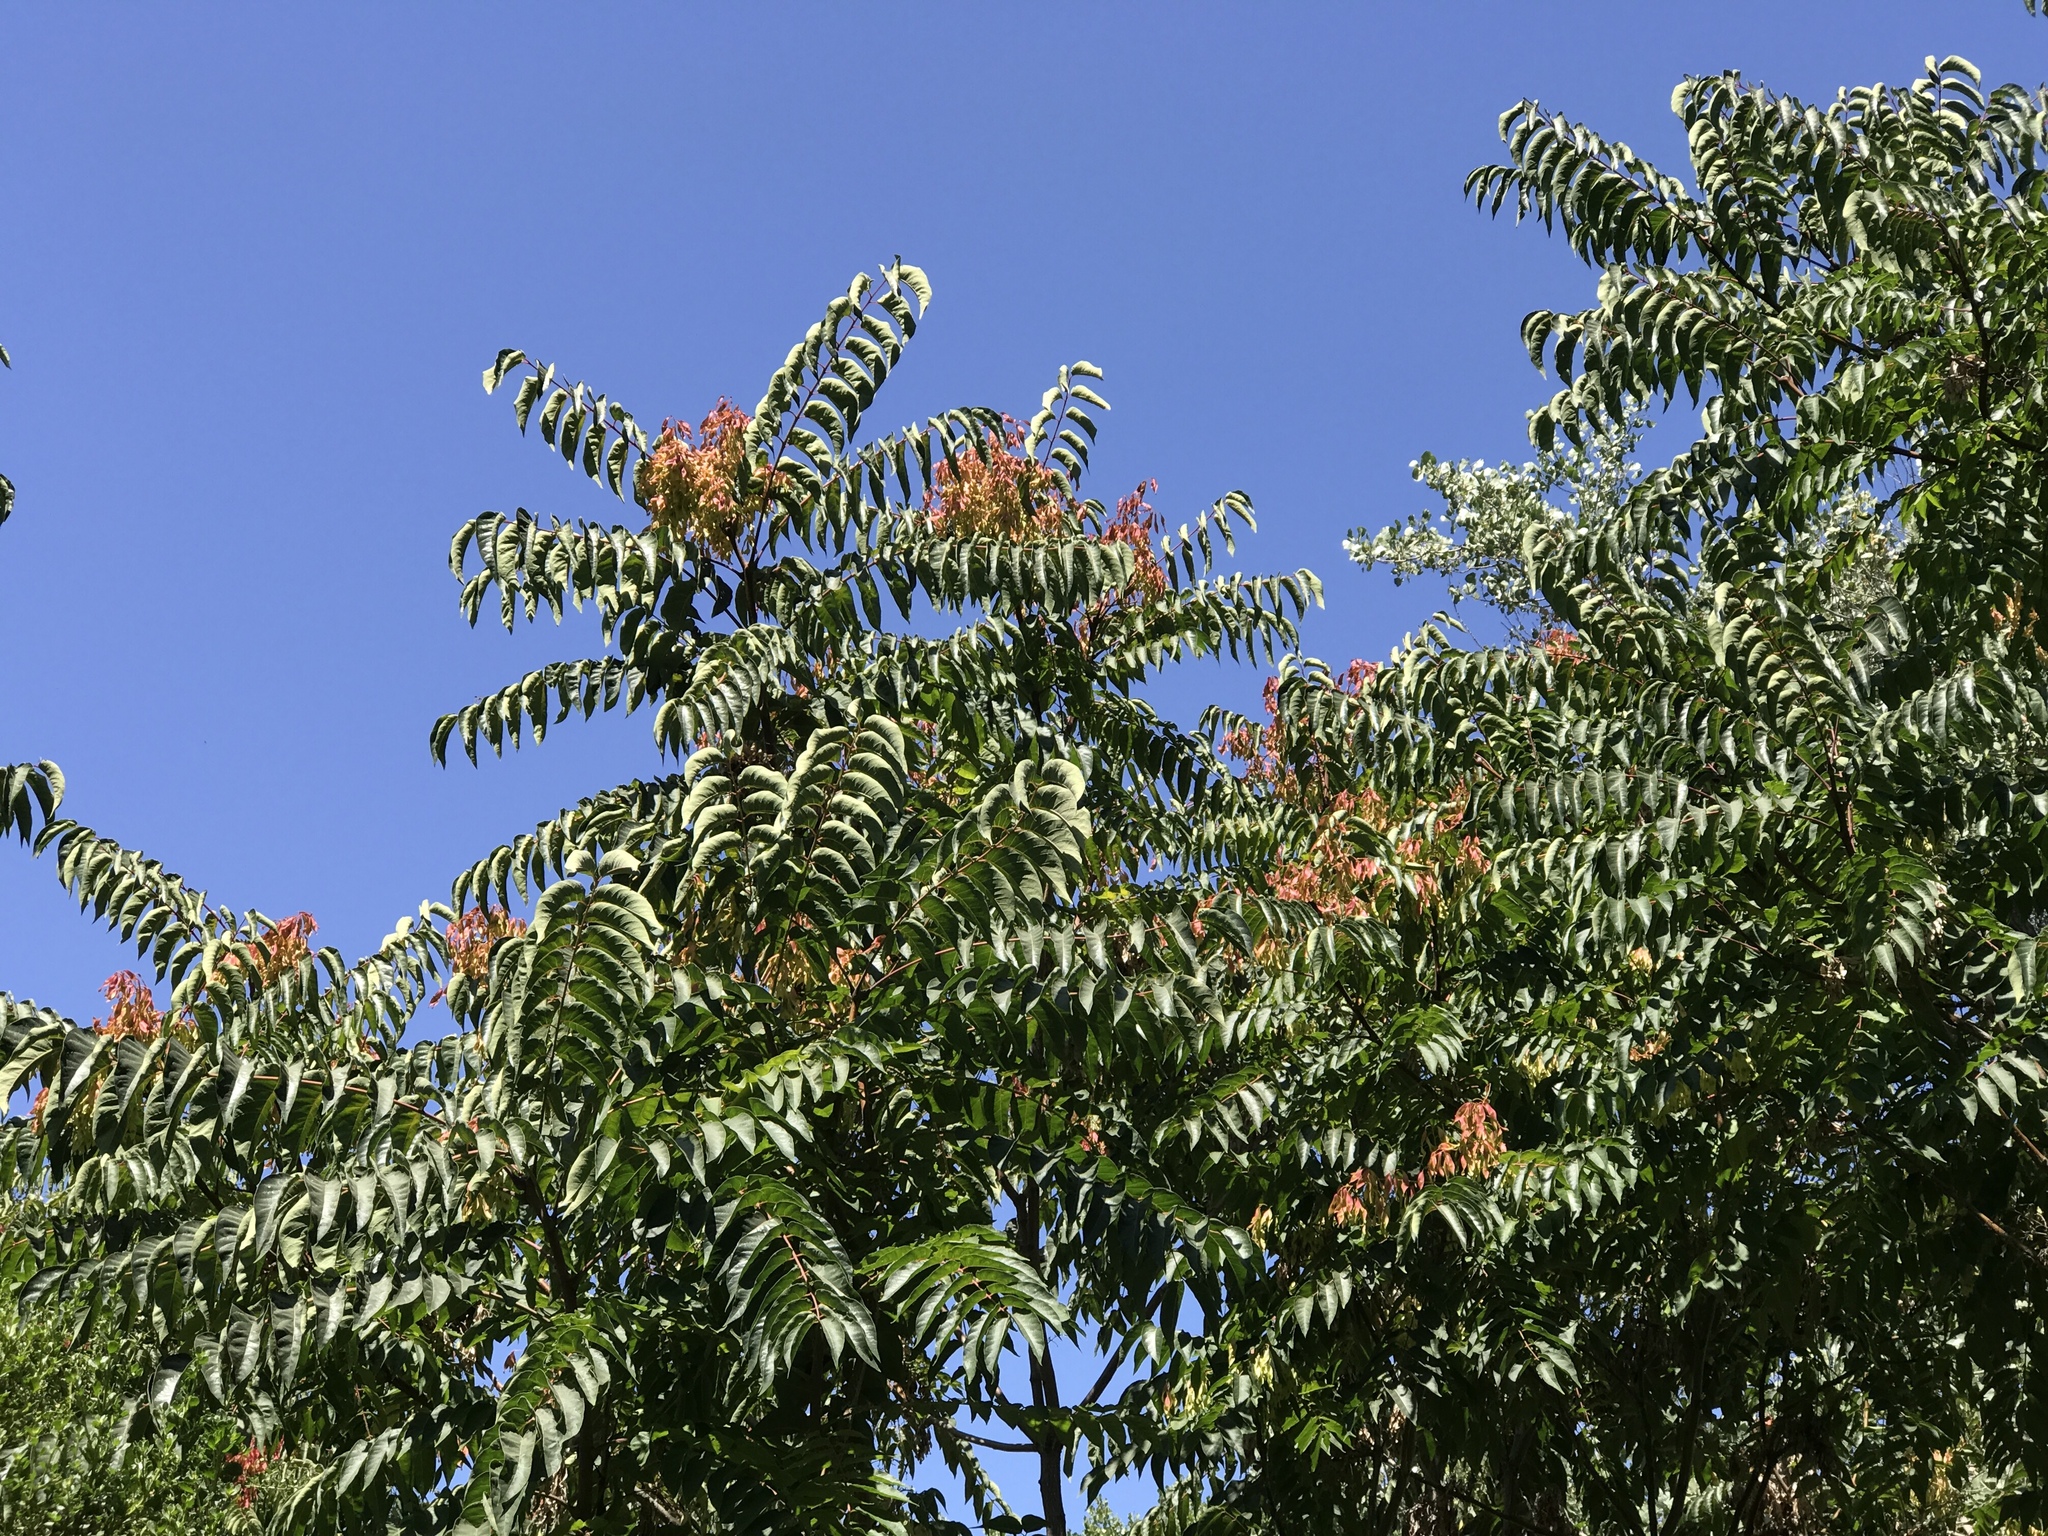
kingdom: Plantae
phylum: Tracheophyta
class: Magnoliopsida
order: Sapindales
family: Simaroubaceae
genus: Ailanthus
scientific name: Ailanthus altissima
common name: Tree-of-heaven
